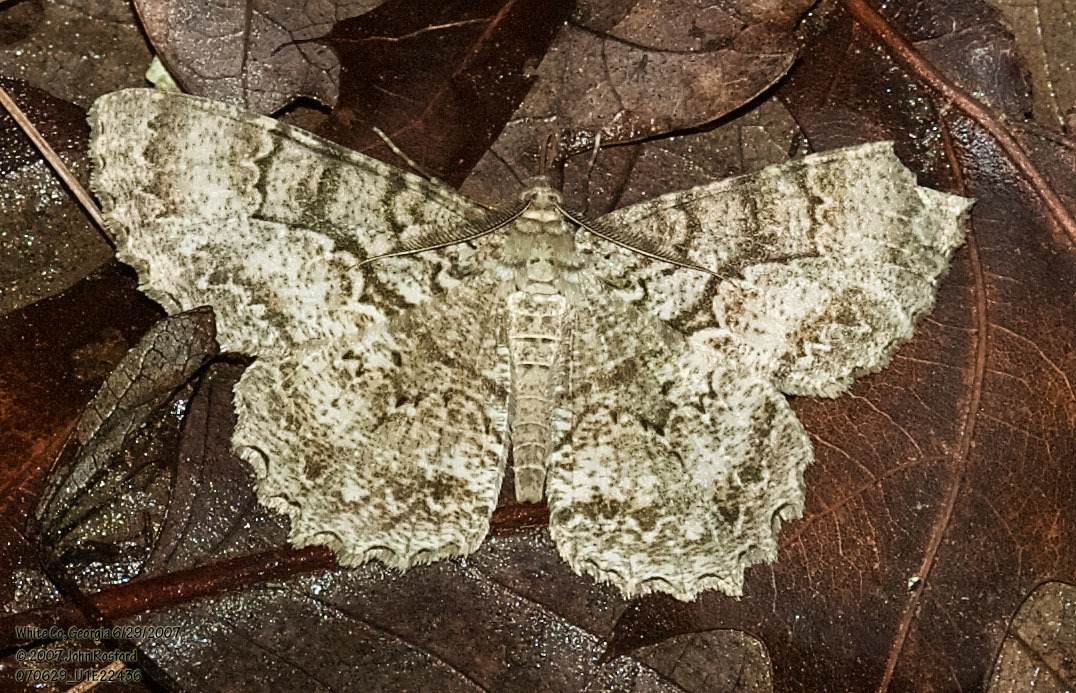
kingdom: Animalia
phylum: Arthropoda
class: Insecta
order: Lepidoptera
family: Geometridae
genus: Epimecis
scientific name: Epimecis hortaria
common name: Tulip-tree beauty
